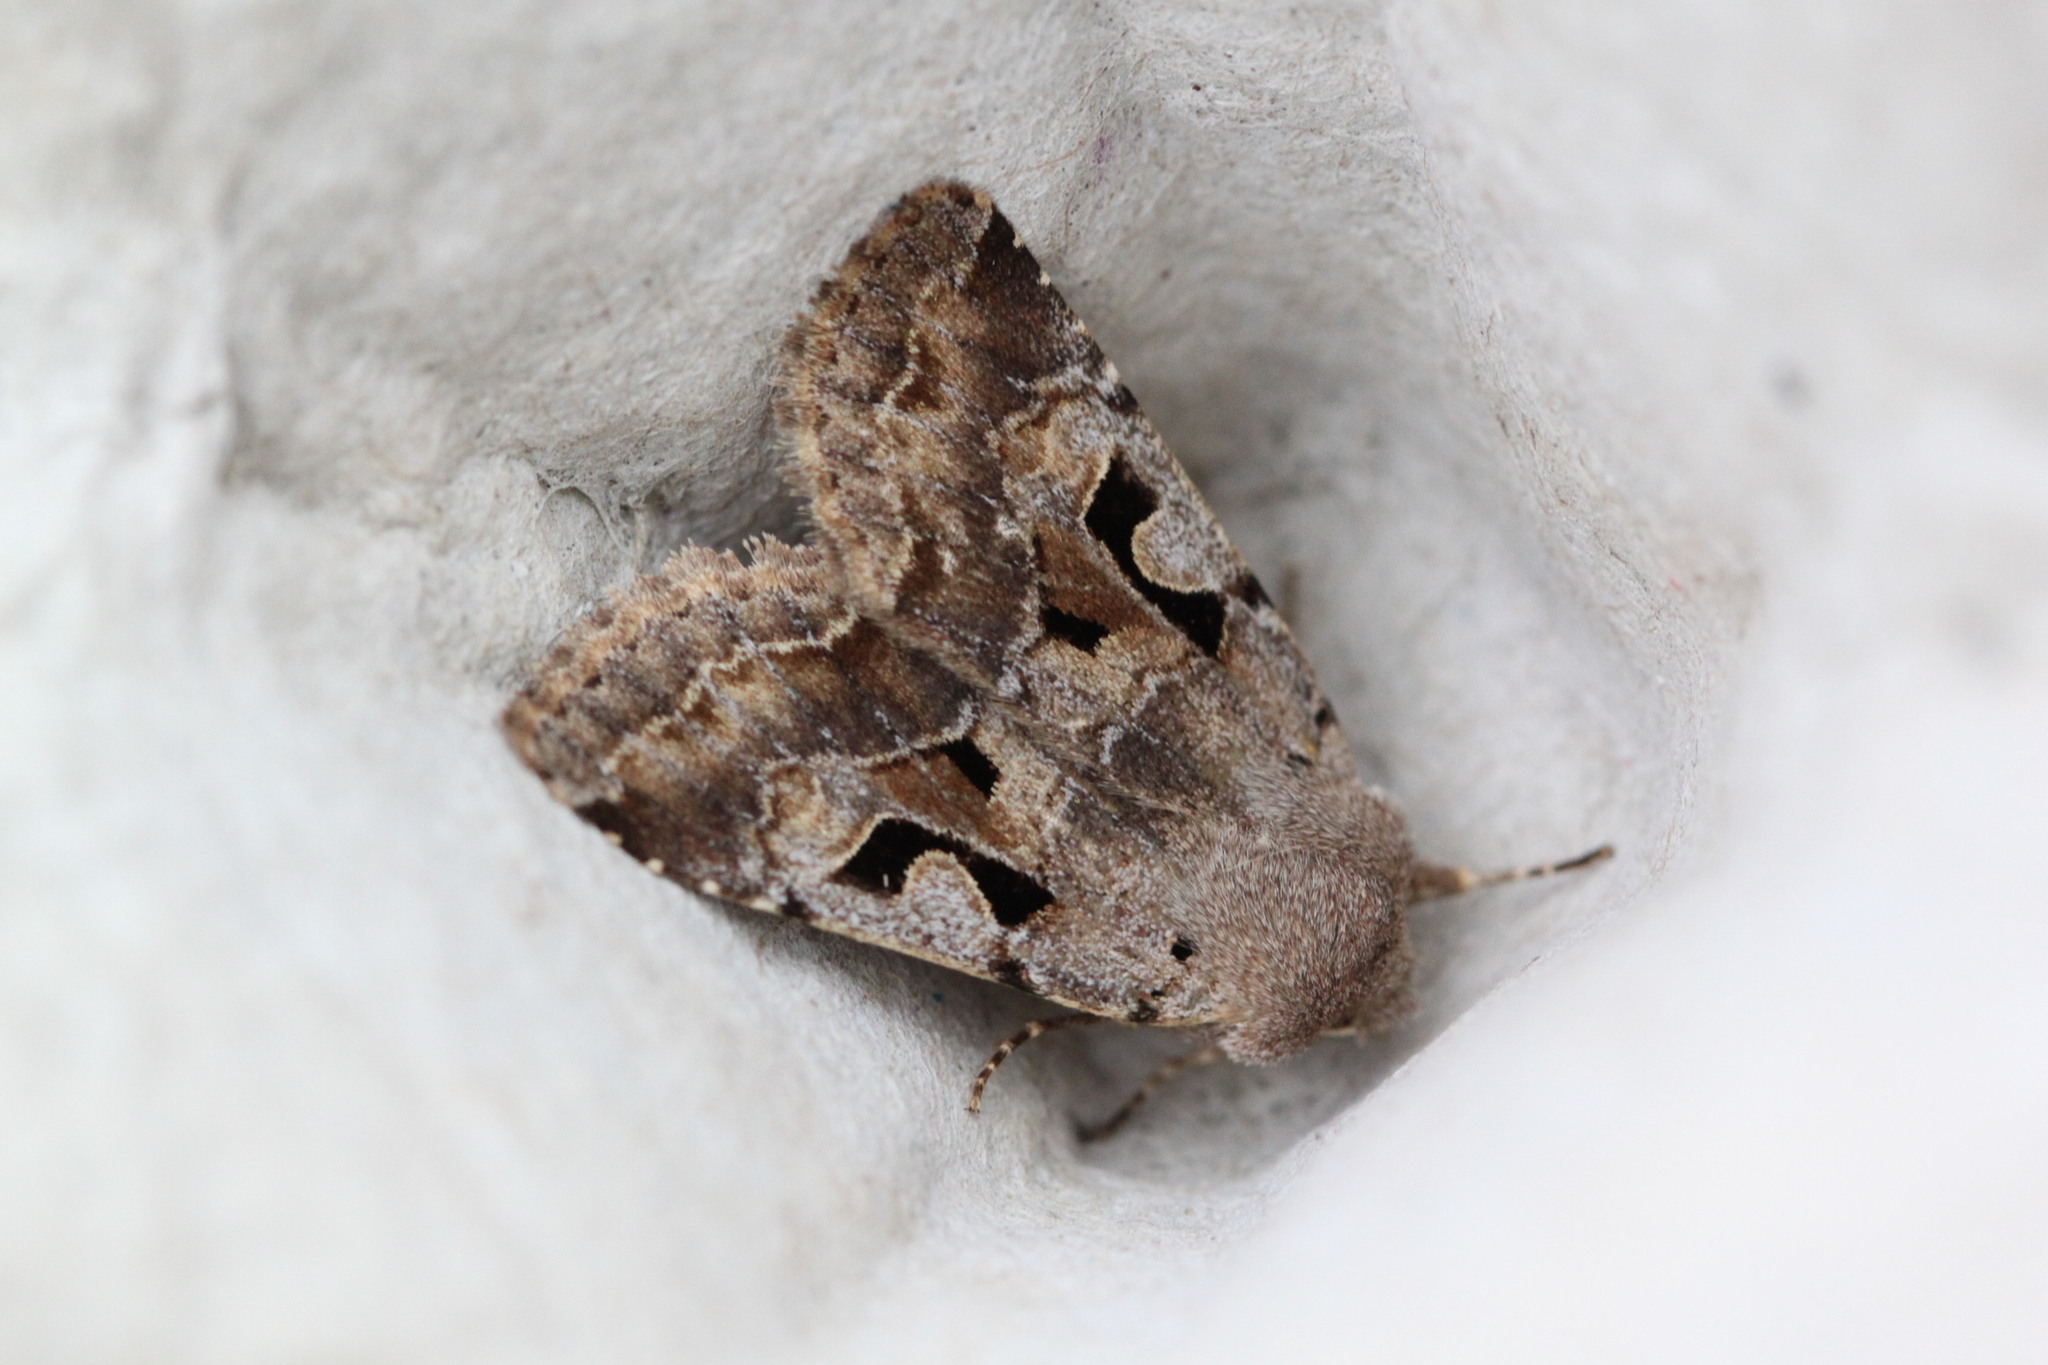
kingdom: Animalia
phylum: Arthropoda
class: Insecta
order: Lepidoptera
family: Noctuidae
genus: Orthosia
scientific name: Orthosia gothica
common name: Hebrew character
